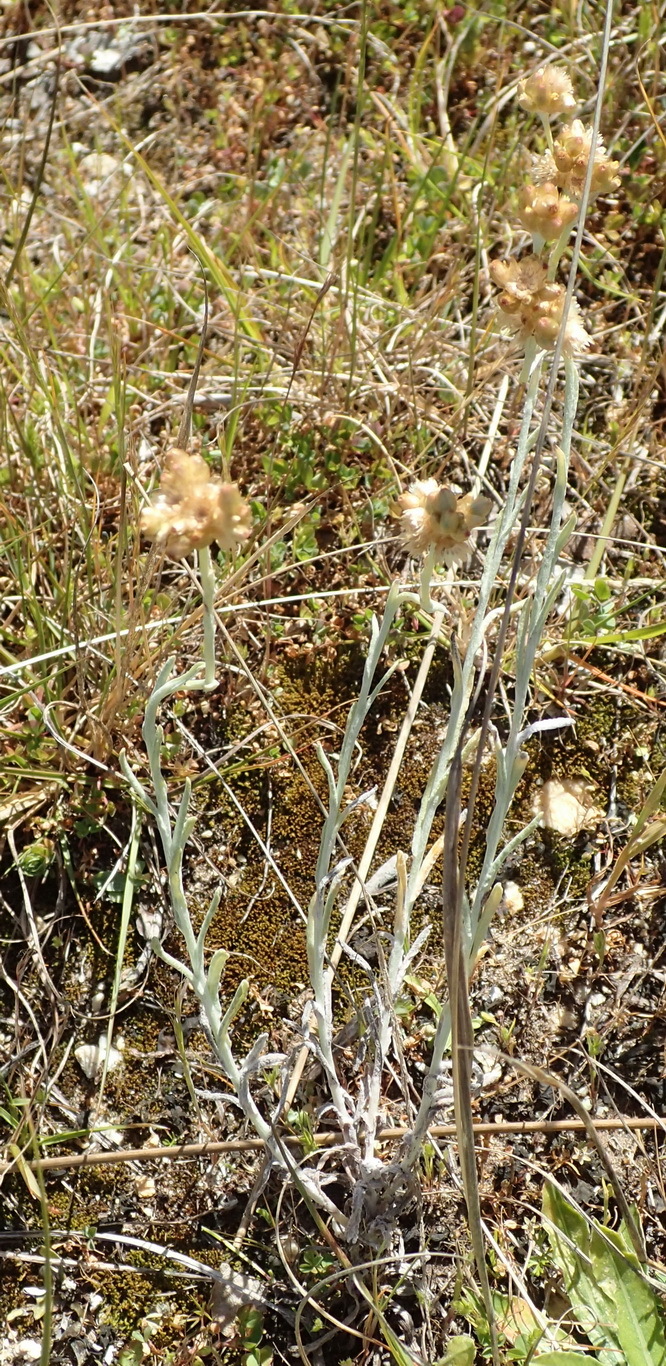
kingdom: Plantae
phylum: Tracheophyta
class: Magnoliopsida
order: Asterales
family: Asteraceae
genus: Pseudognaphalium
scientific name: Pseudognaphalium undulatum
